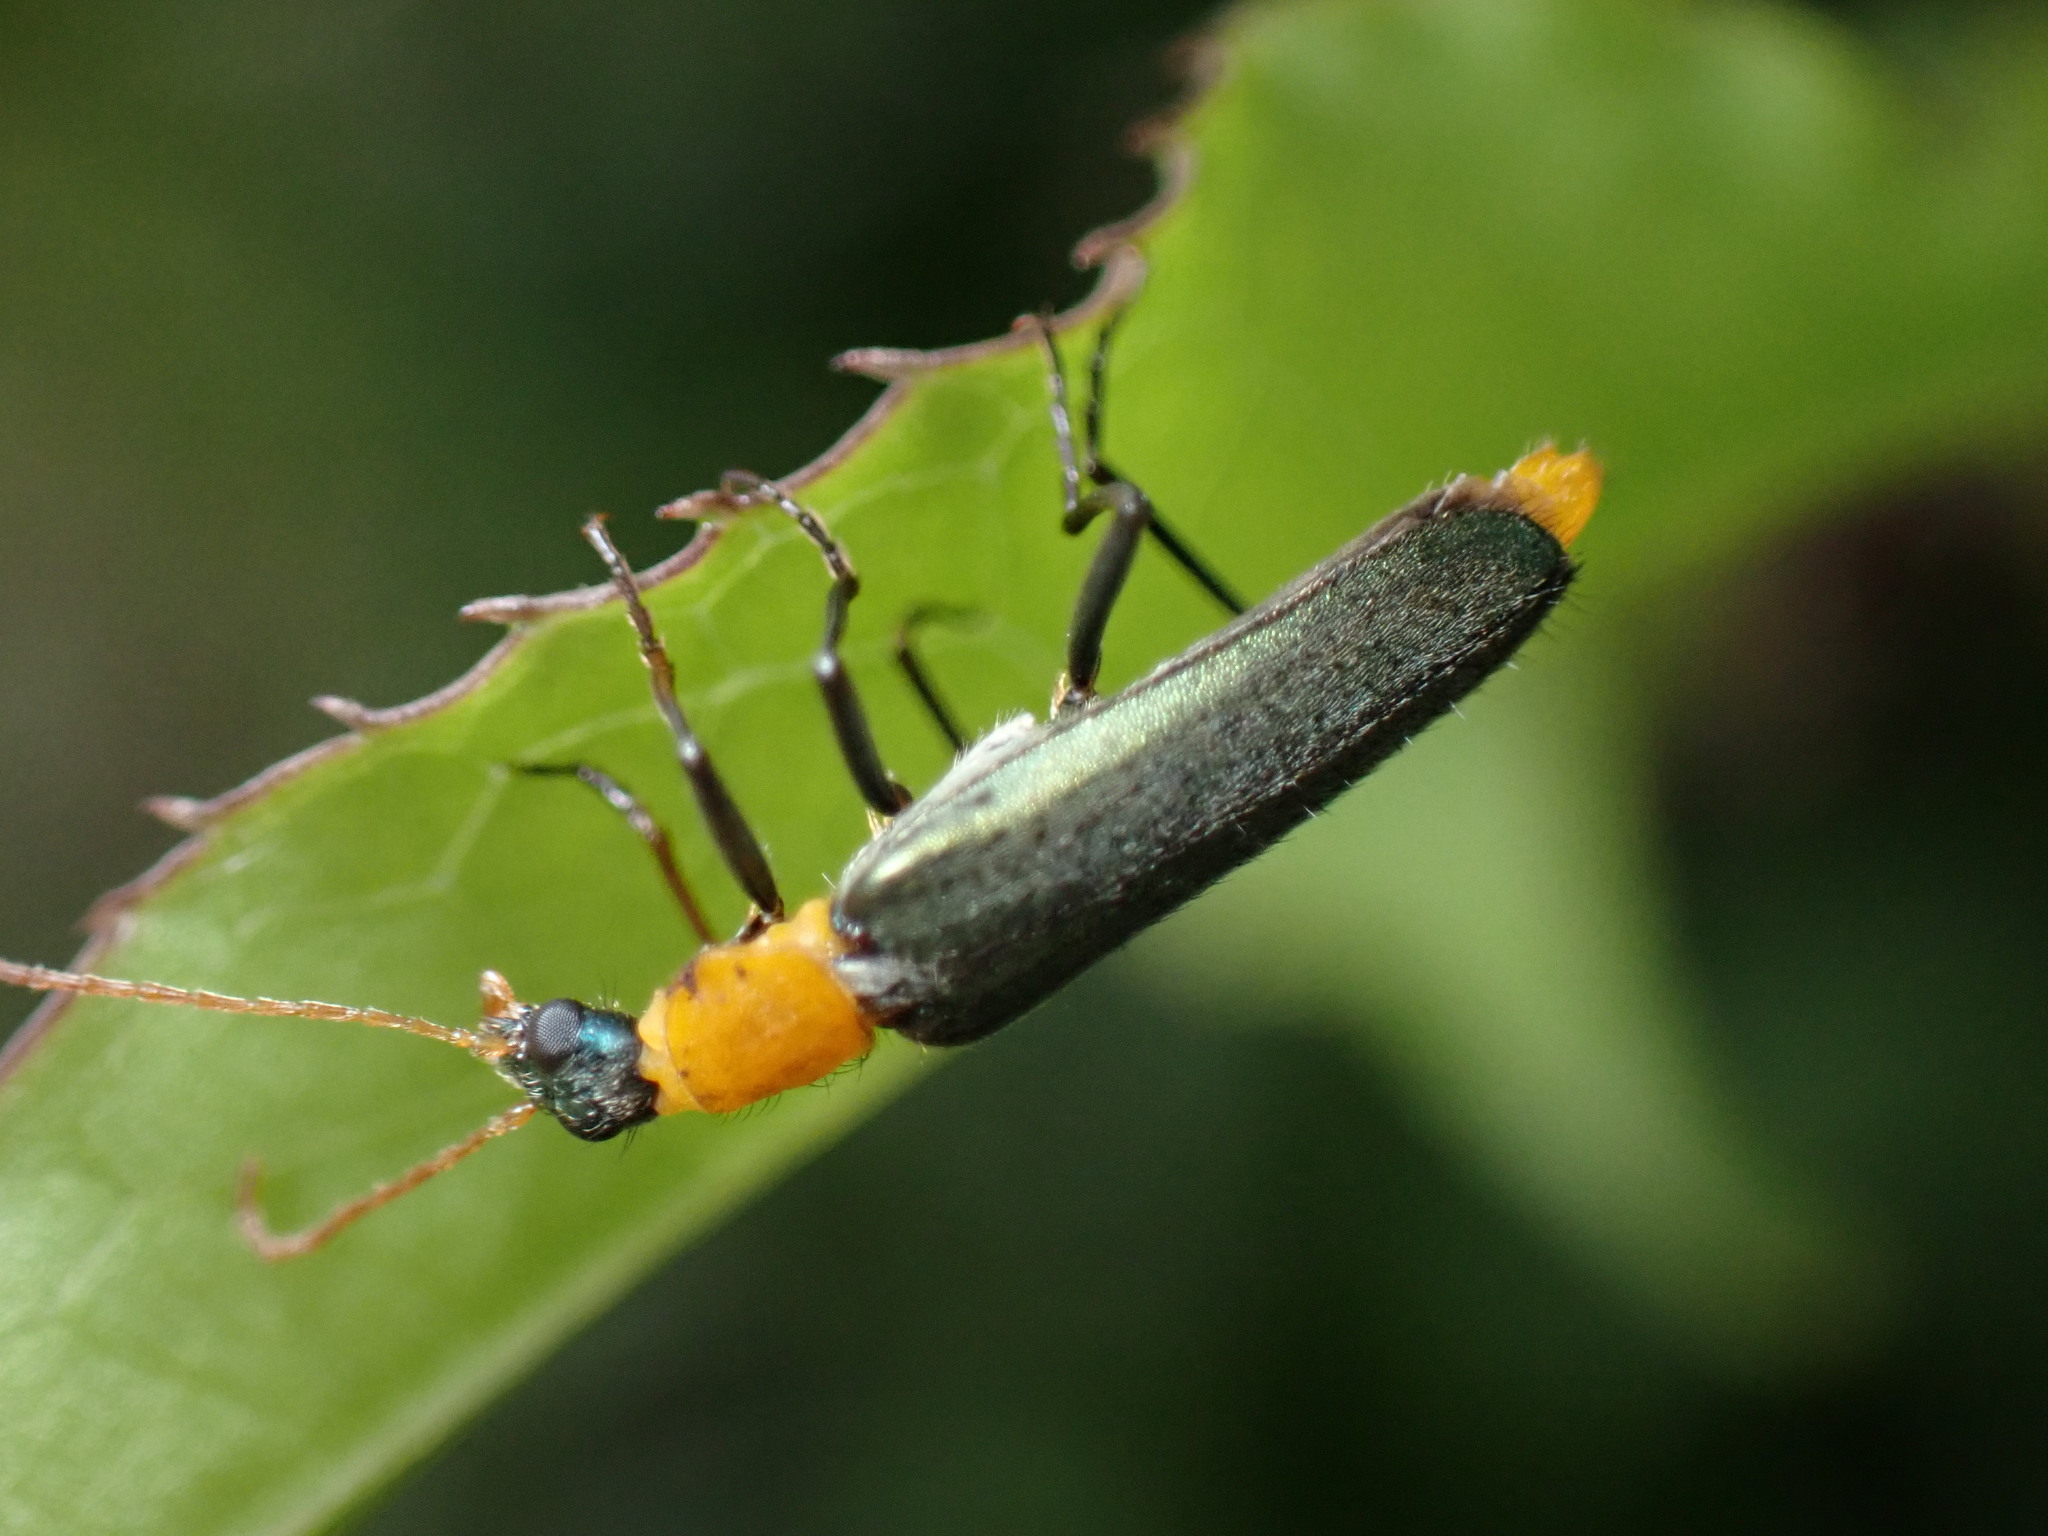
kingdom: Animalia
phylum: Arthropoda
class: Insecta
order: Coleoptera
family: Prionoceridae
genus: Idgia
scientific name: Idgia flavicollis
